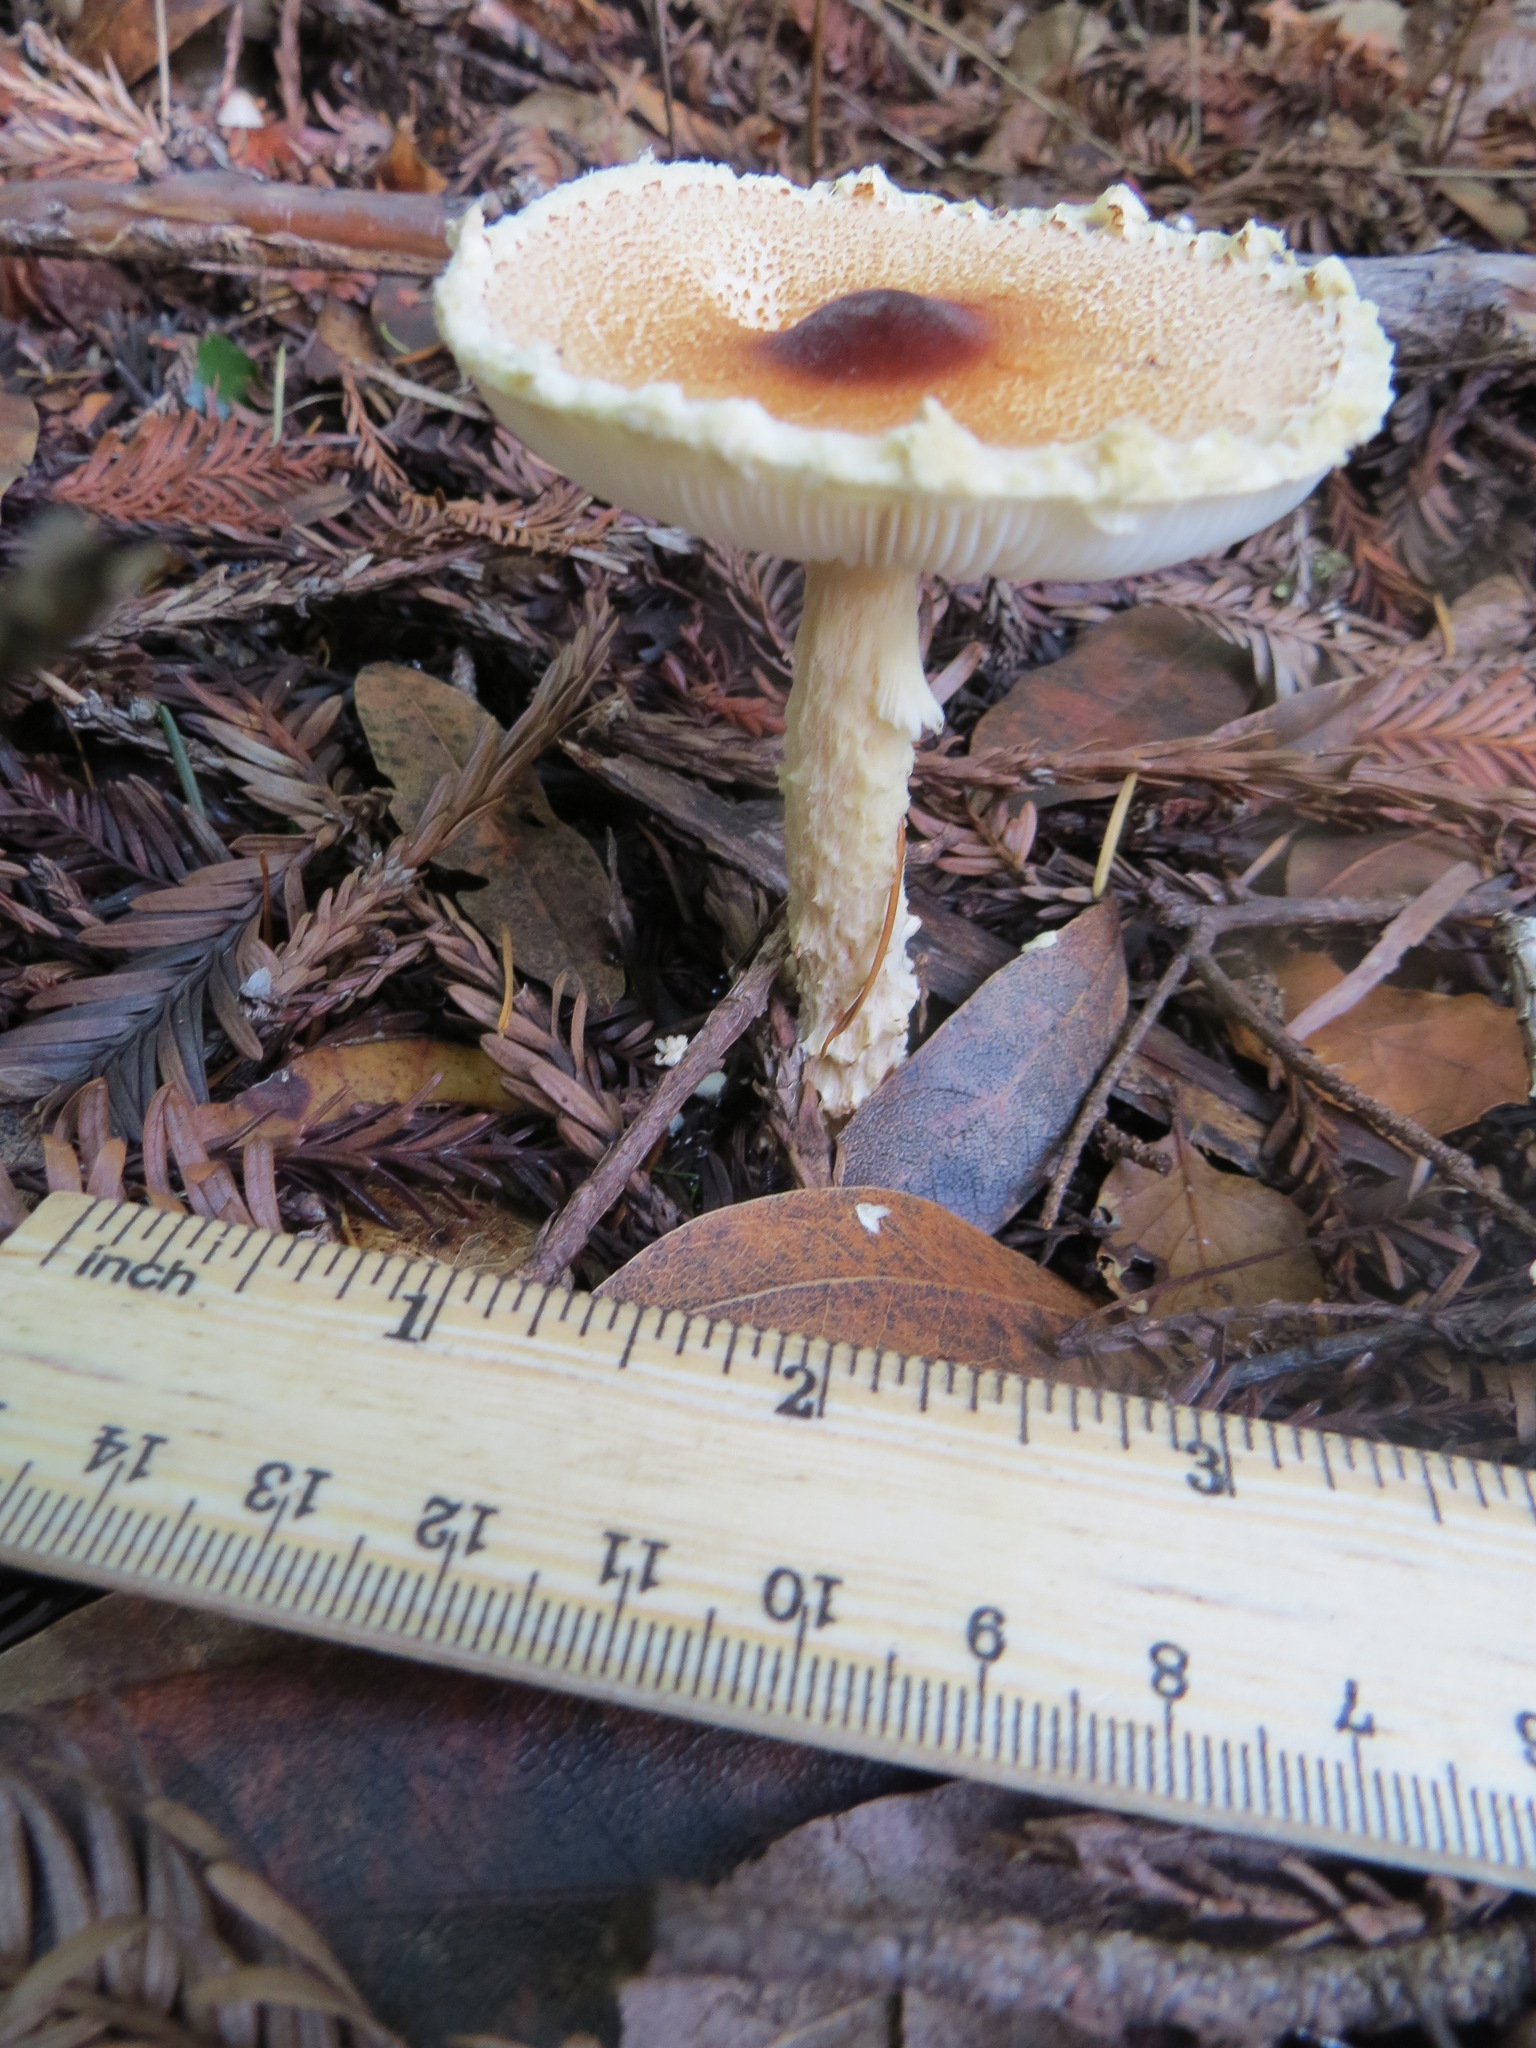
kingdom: Fungi
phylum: Basidiomycota
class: Agaricomycetes
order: Agaricales
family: Agaricaceae
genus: Lepiota
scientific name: Lepiota magnispora
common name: Yellowfoot dapperling
